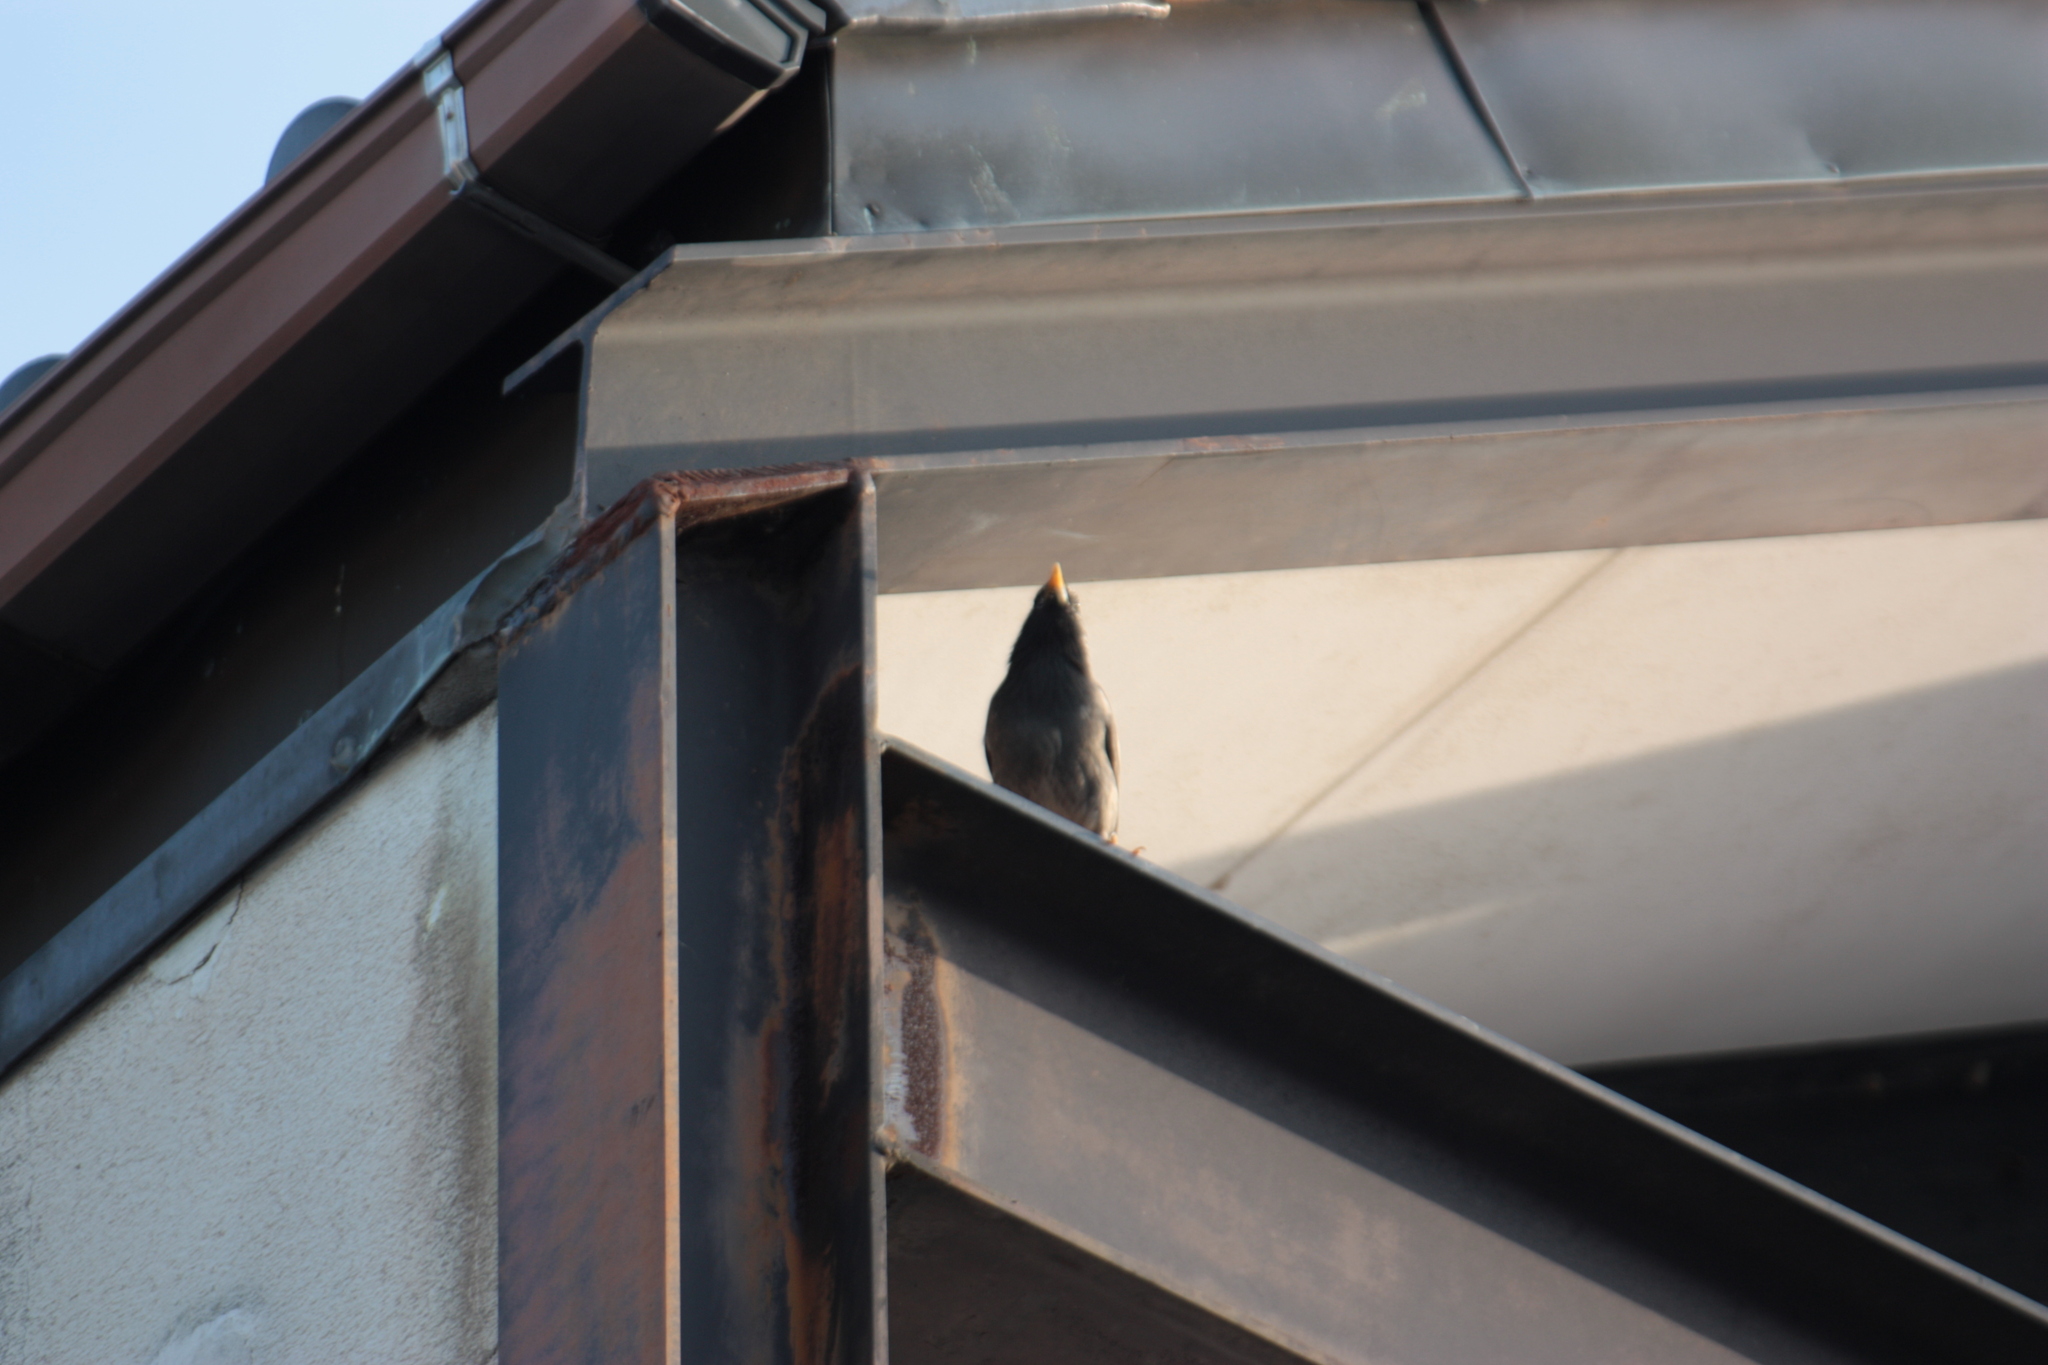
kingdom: Animalia
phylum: Chordata
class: Aves
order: Passeriformes
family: Sturnidae
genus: Spodiopsar
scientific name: Spodiopsar cineraceus
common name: White-cheeked starling
